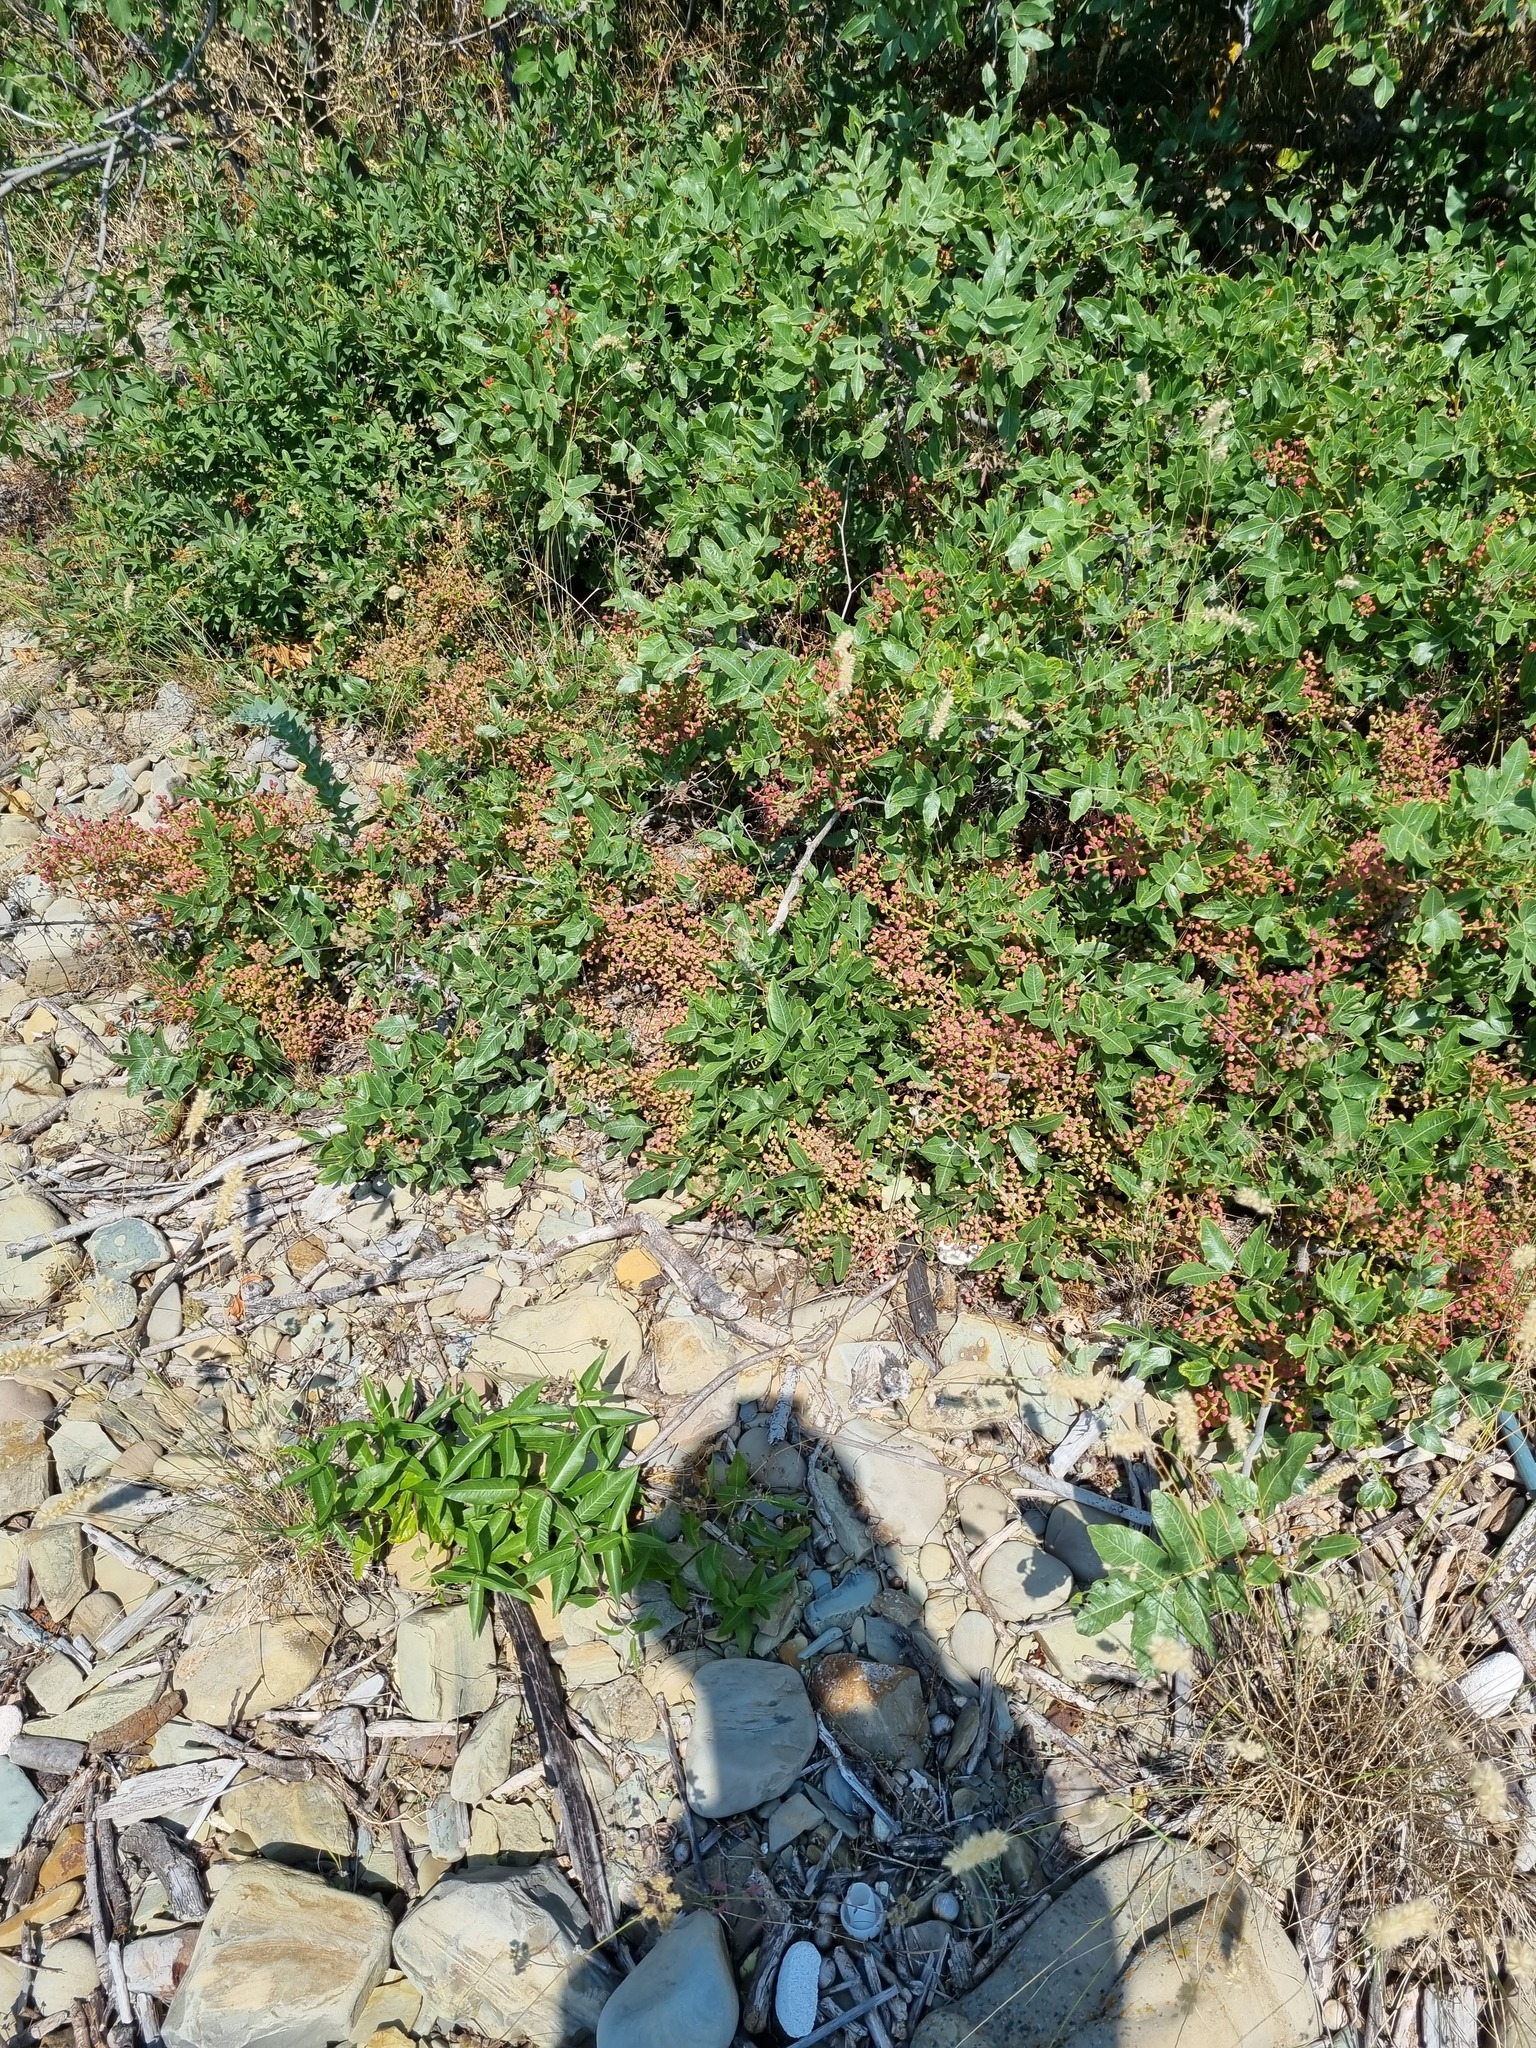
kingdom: Plantae
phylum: Tracheophyta
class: Magnoliopsida
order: Gentianales
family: Apocynaceae
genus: Periploca
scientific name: Periploca graeca
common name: Silkvine
